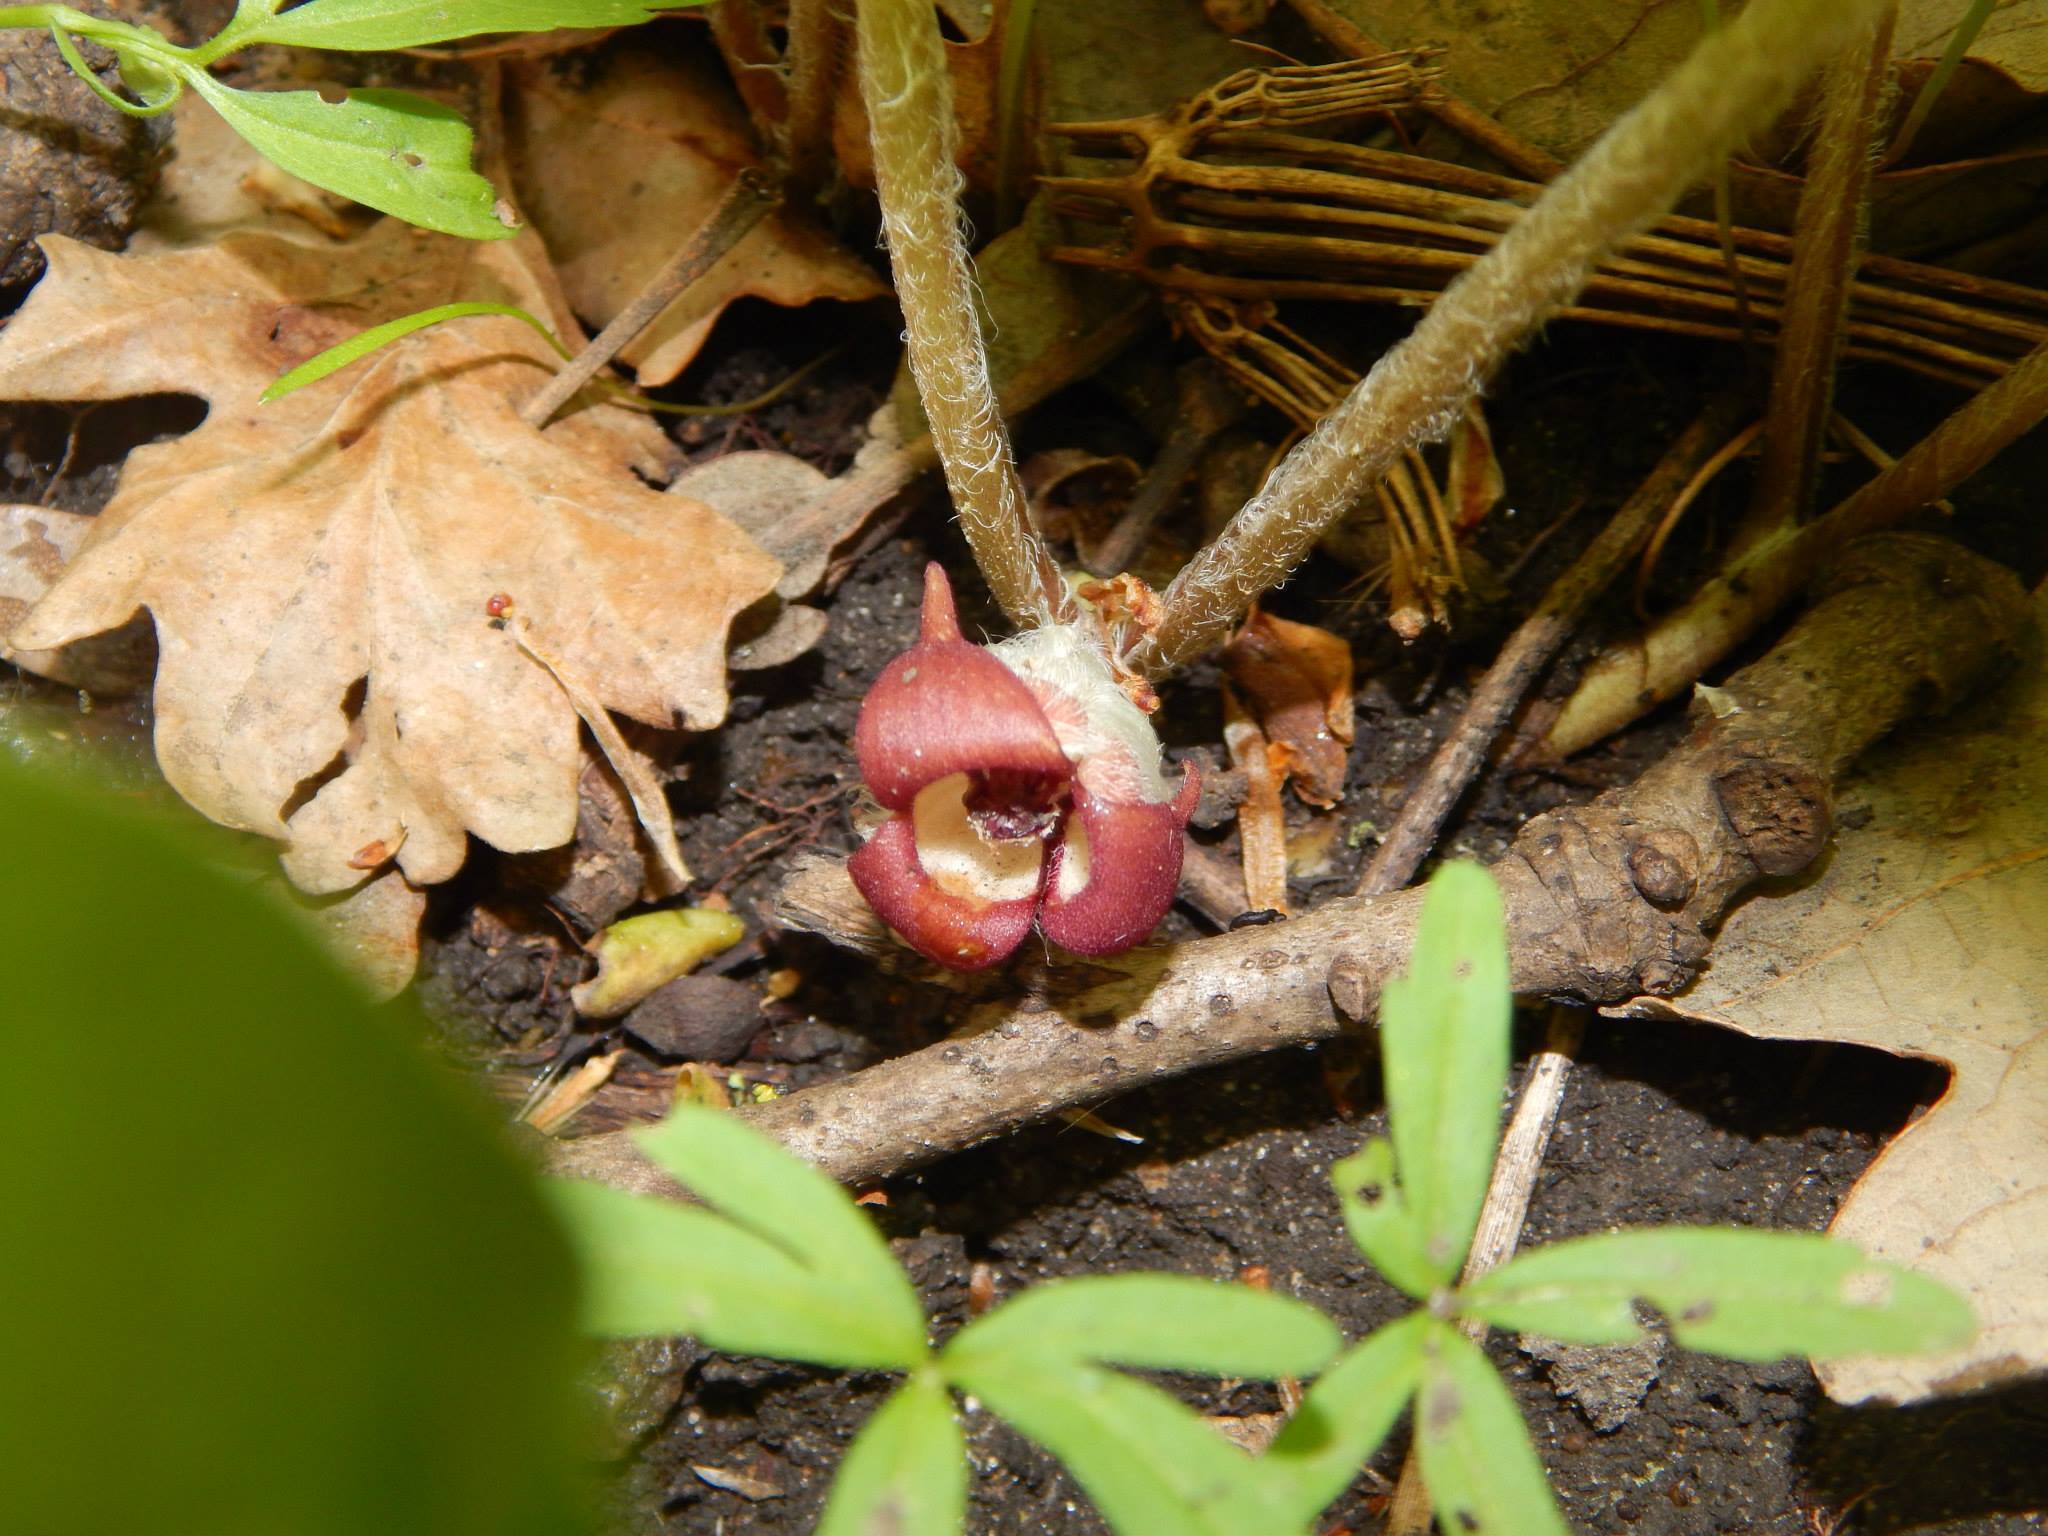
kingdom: Plantae
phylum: Tracheophyta
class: Magnoliopsida
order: Piperales
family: Aristolochiaceae
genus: Asarum
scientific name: Asarum canadense
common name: Wild ginger
